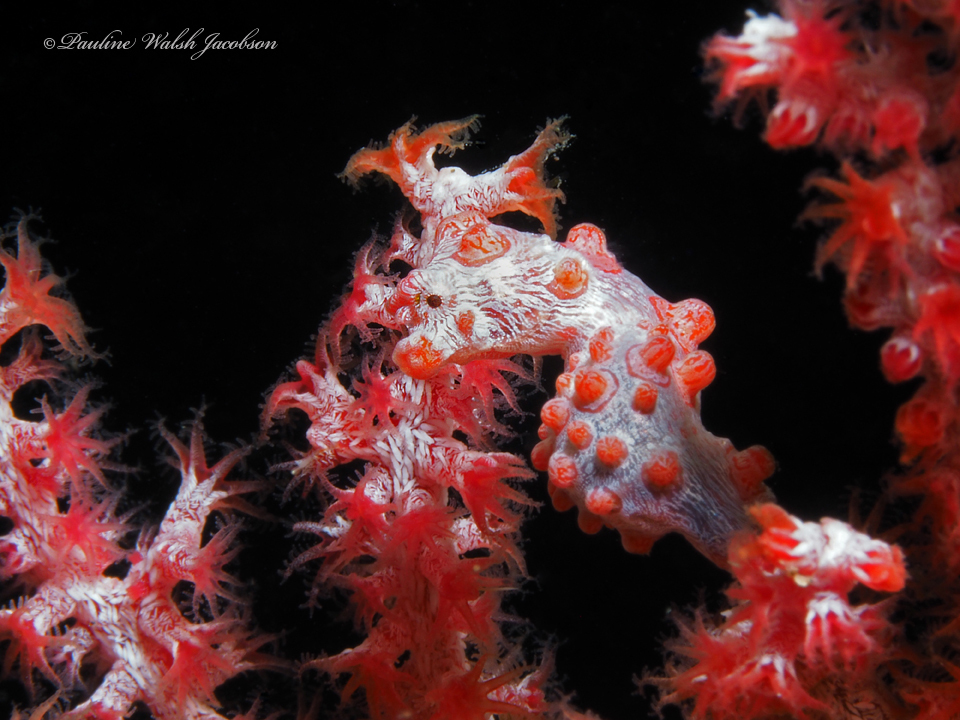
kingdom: Animalia
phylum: Chordata
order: Syngnathiformes
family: Syngnathidae
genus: Hippocampus
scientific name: Hippocampus bargibanti
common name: Bargibant's seahorse
